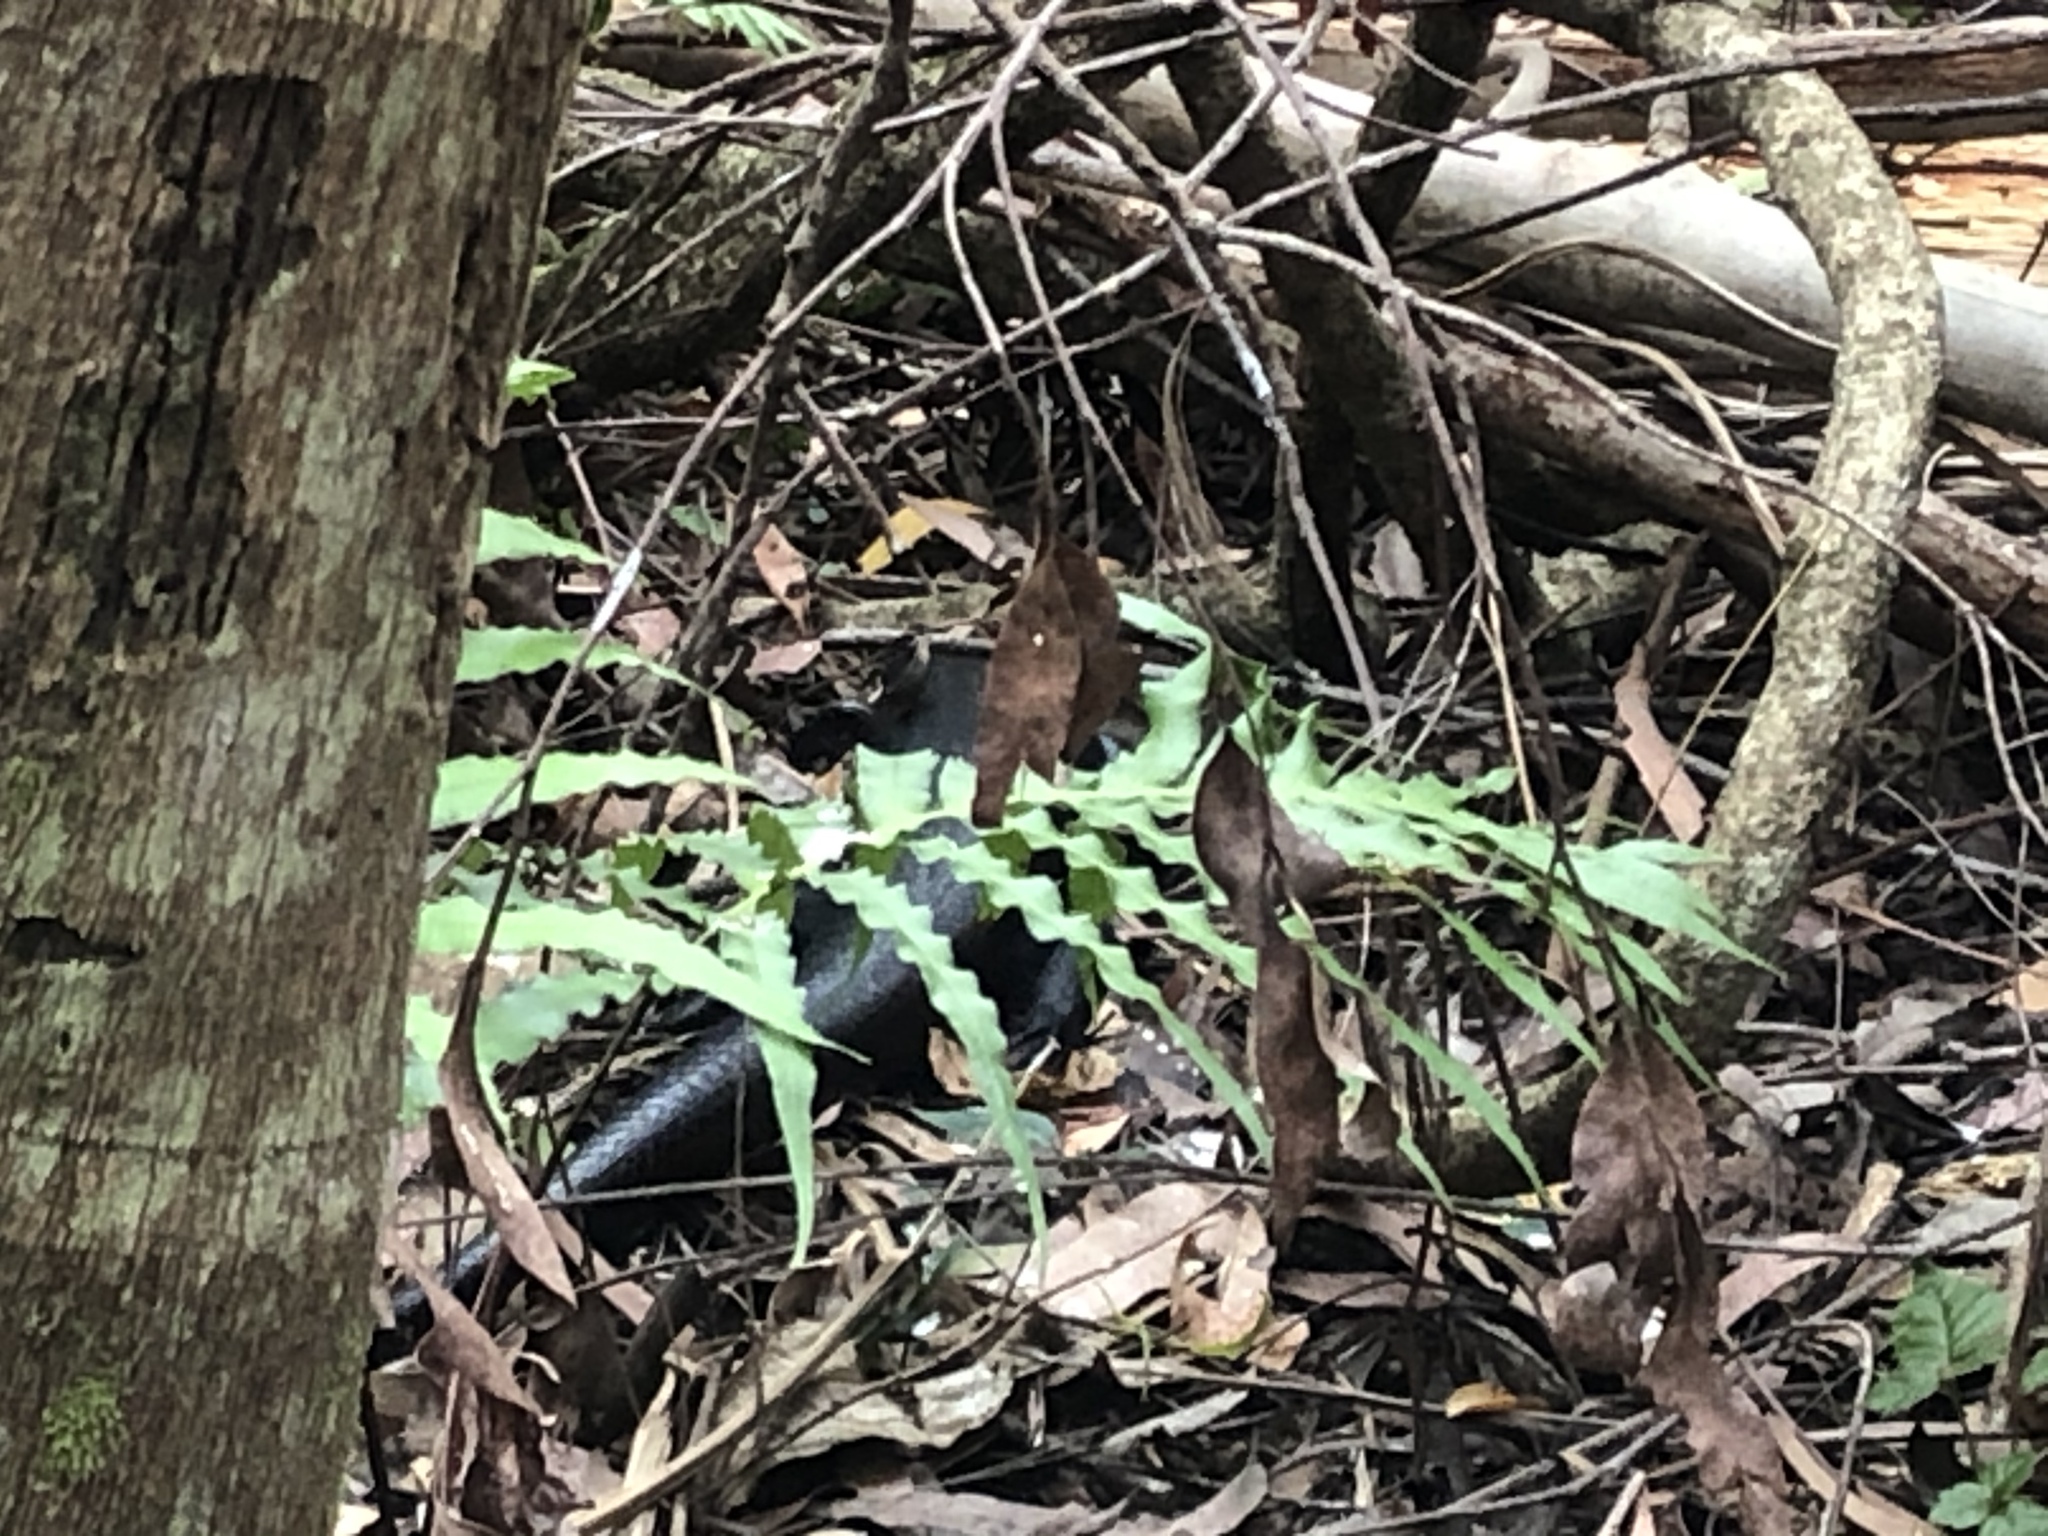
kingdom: Animalia
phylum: Chordata
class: Squamata
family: Scincidae
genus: Bellatorias
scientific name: Bellatorias major
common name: Land mullet
